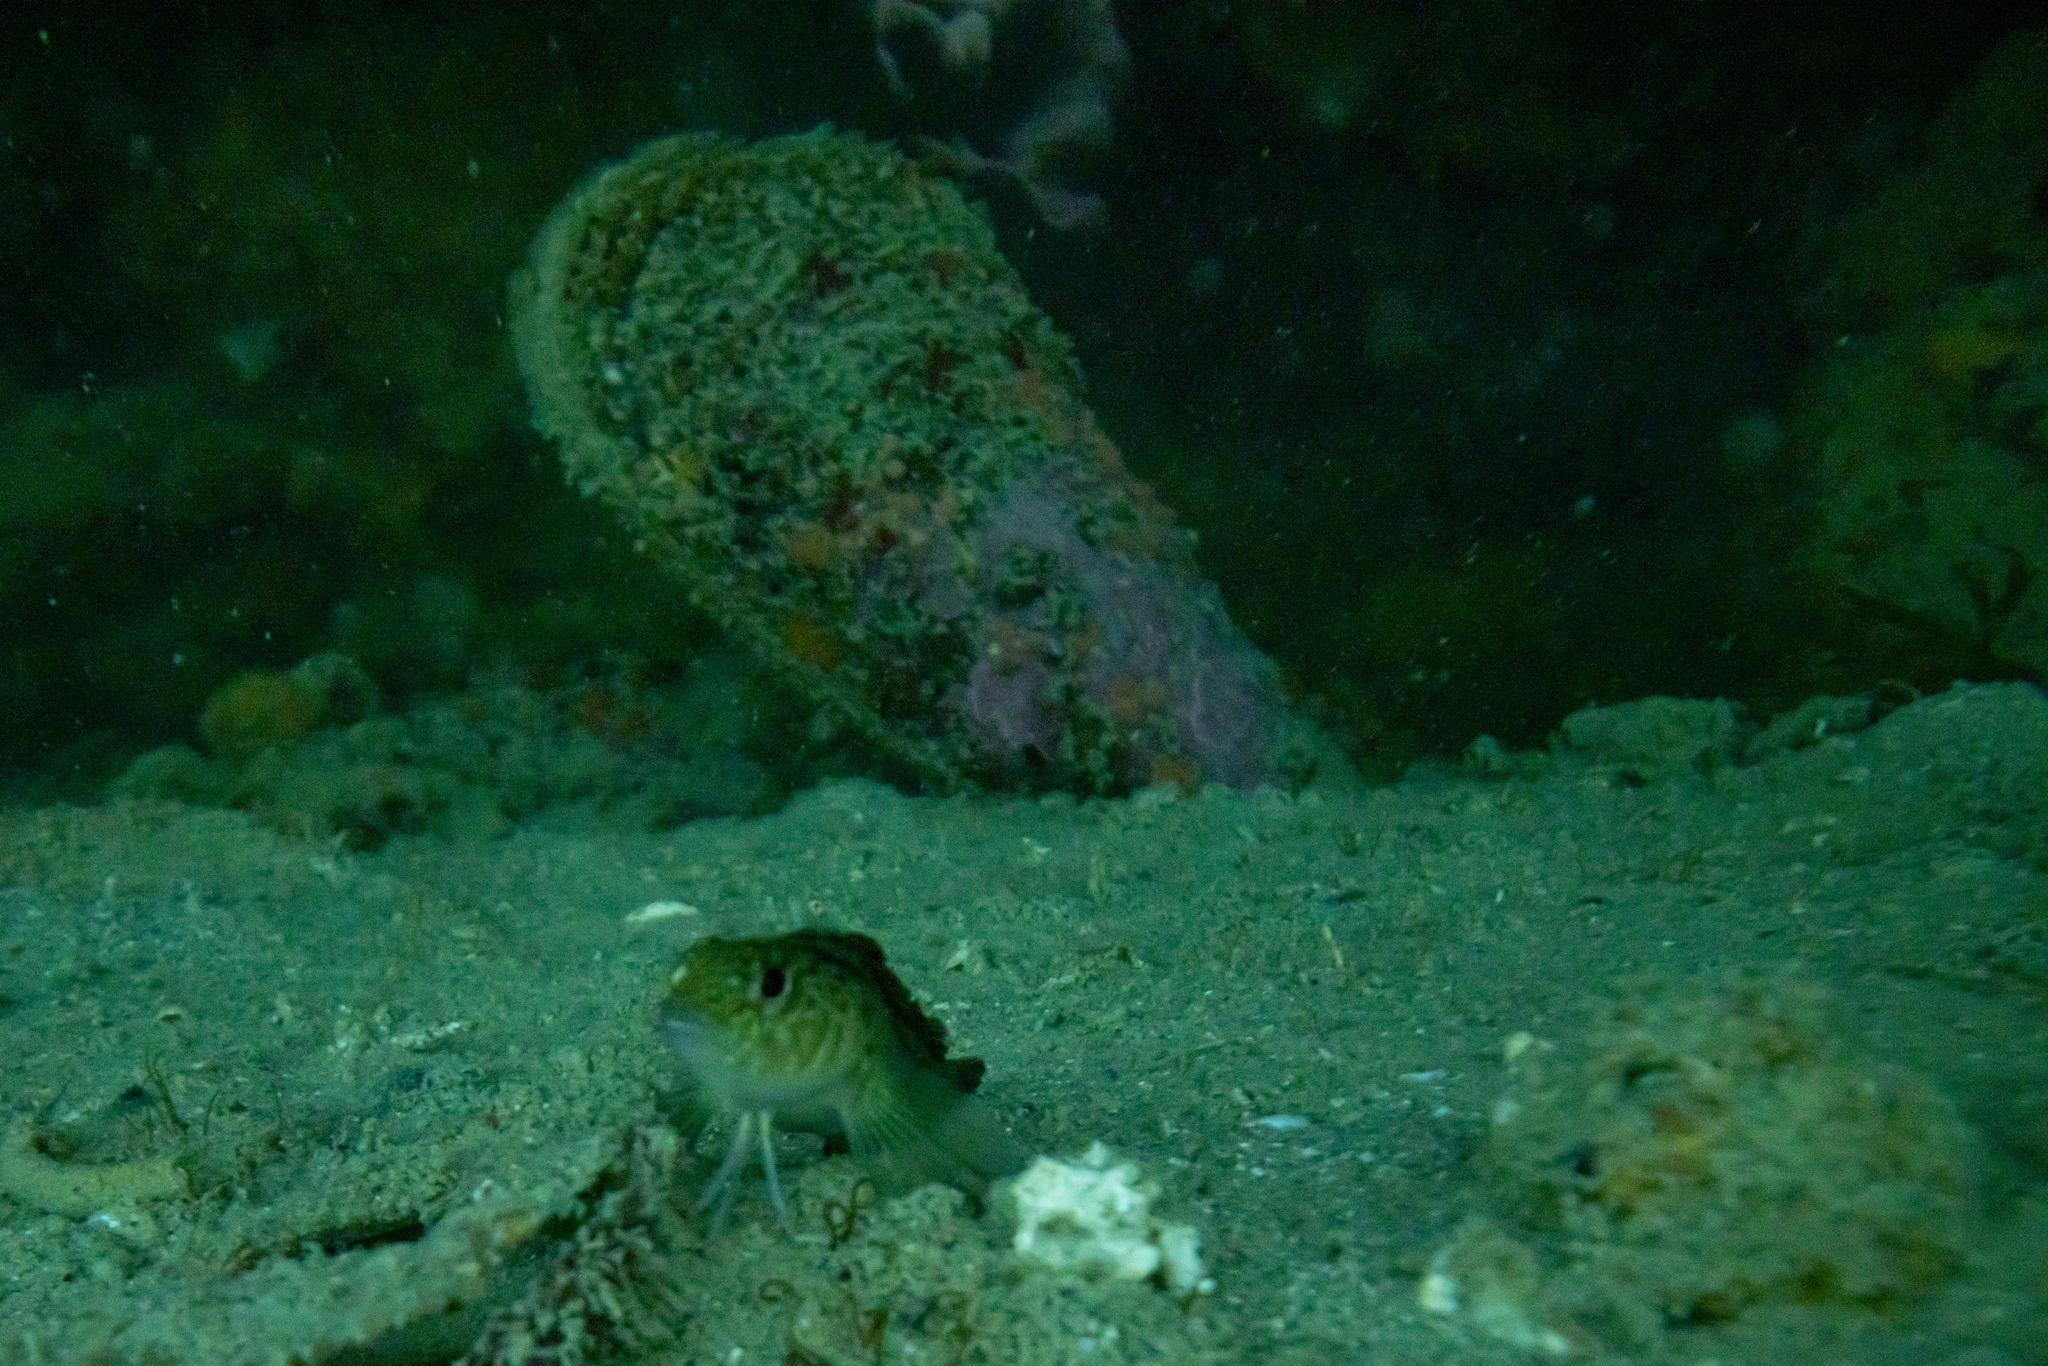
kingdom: Animalia
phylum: Mollusca
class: Bivalvia
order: Ostreida
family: Pinnidae
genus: Atrina
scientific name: Atrina zelandica
